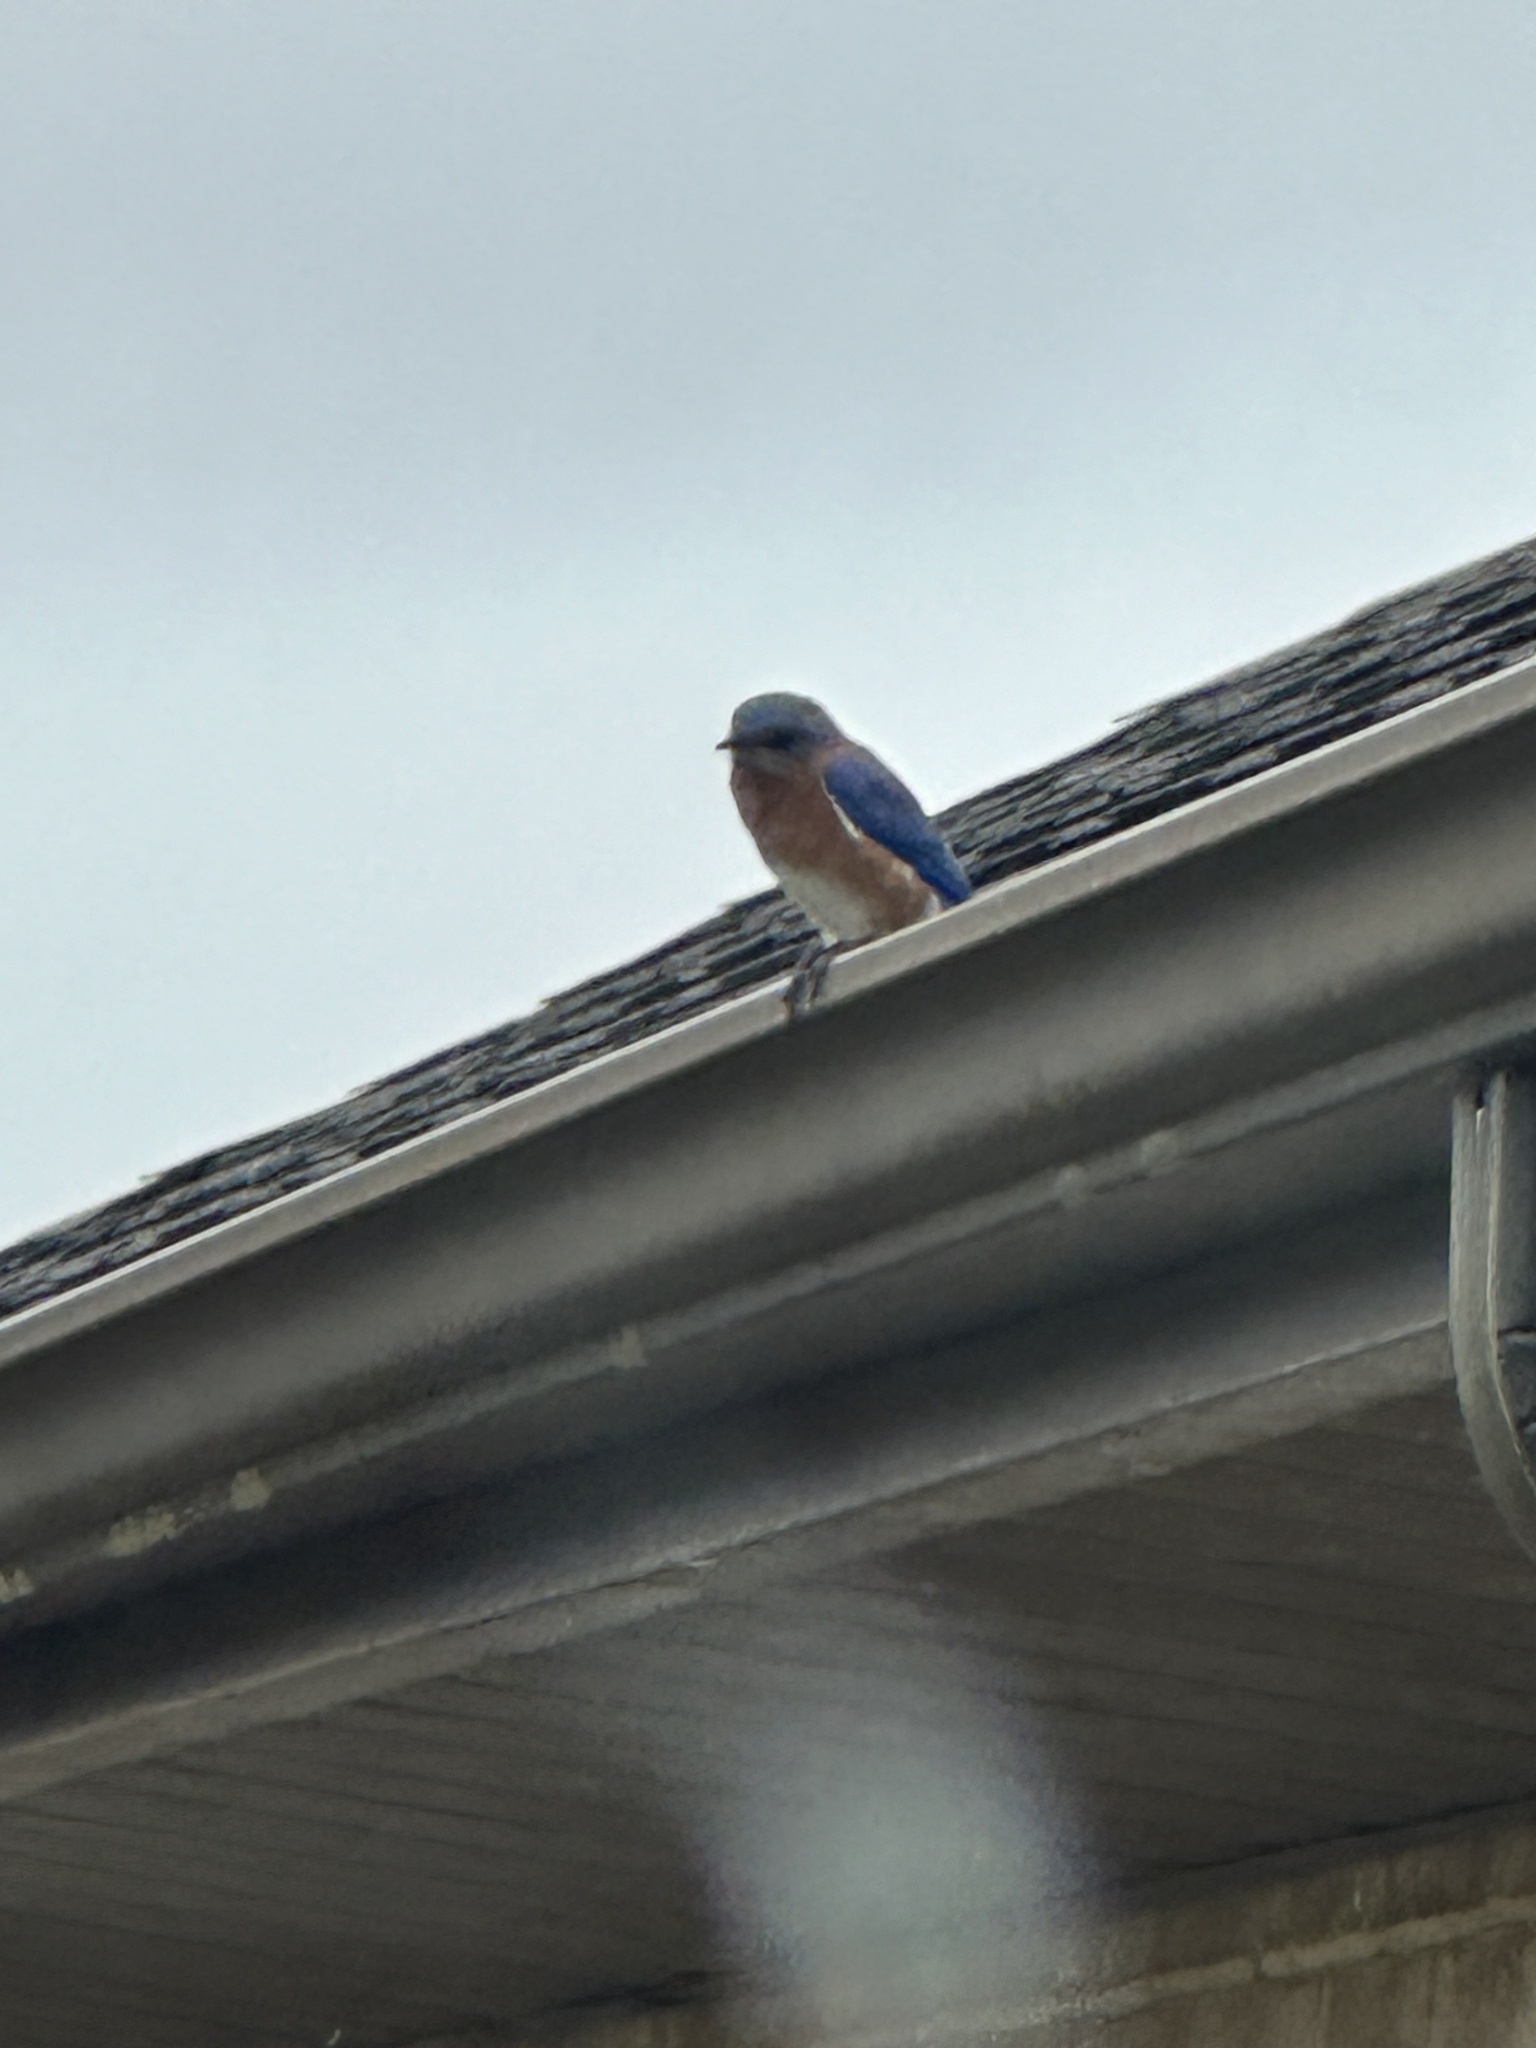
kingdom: Animalia
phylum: Chordata
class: Aves
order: Passeriformes
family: Turdidae
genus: Sialia
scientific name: Sialia sialis
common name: Eastern bluebird
